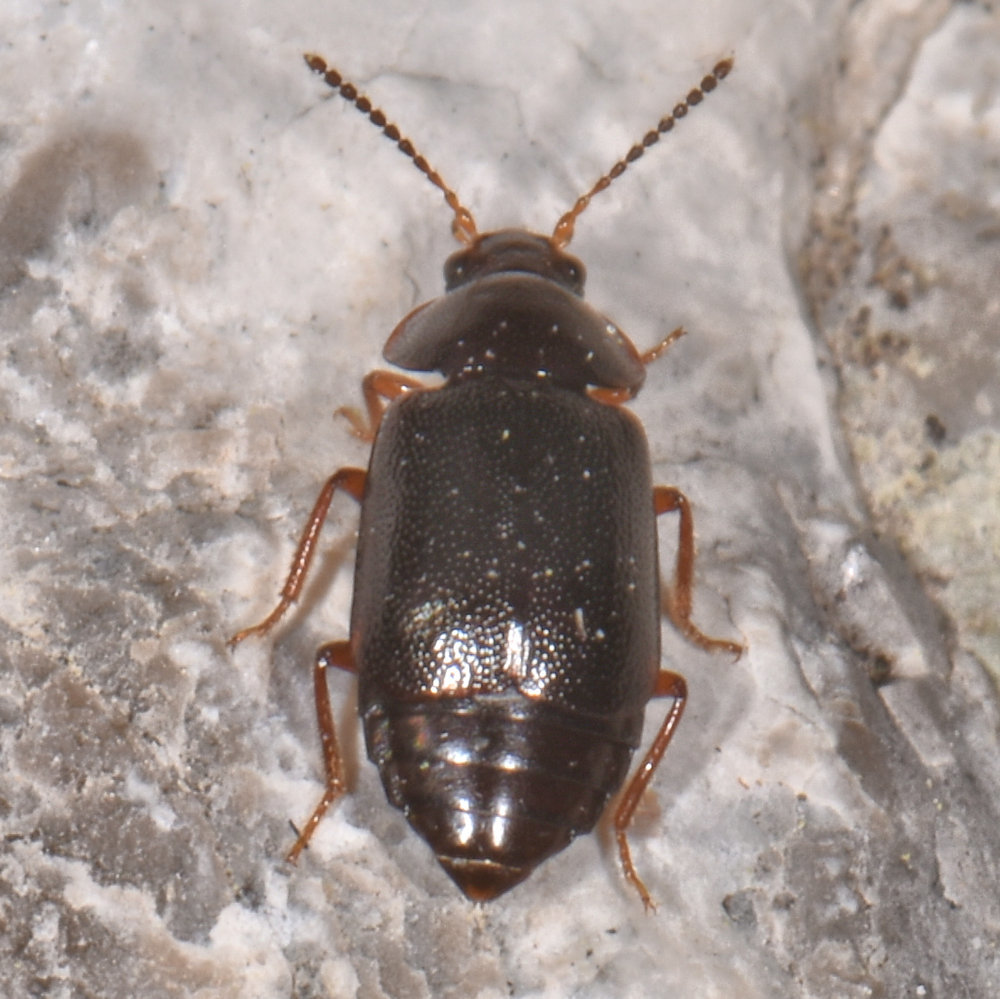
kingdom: Animalia
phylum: Arthropoda
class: Insecta
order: Coleoptera
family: Staphylinidae
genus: Olophrum
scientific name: Olophrum obtectum
